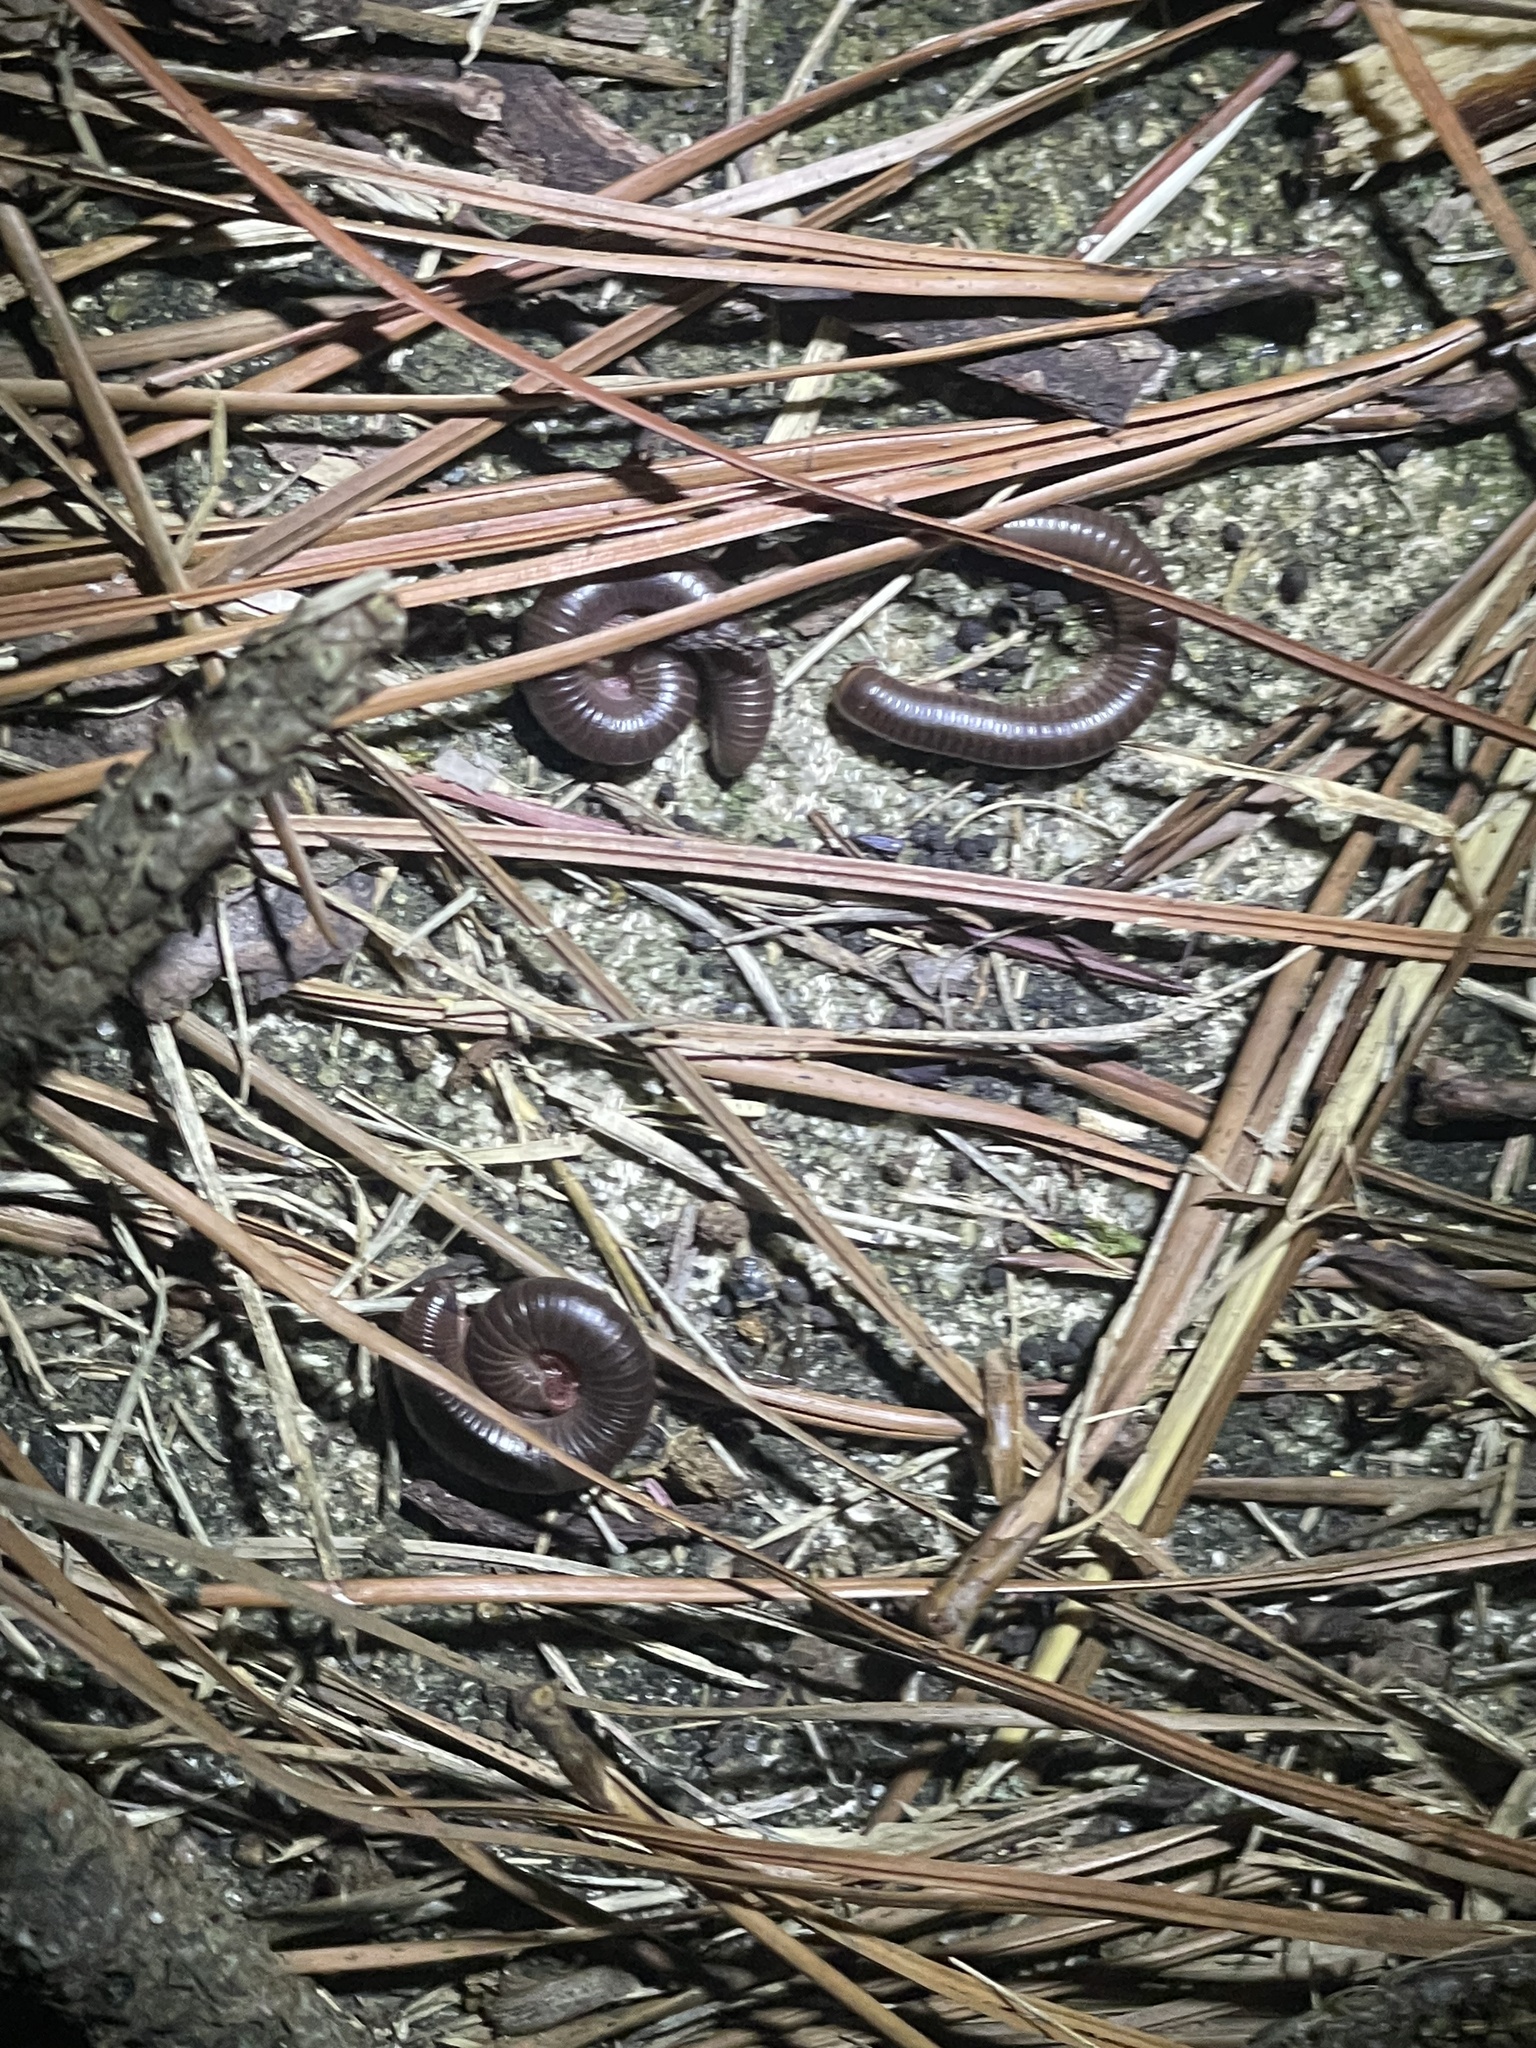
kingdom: Animalia
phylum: Arthropoda
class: Diplopoda
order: Spirobolida
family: Spirobolidae
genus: Narceus
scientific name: Narceus
